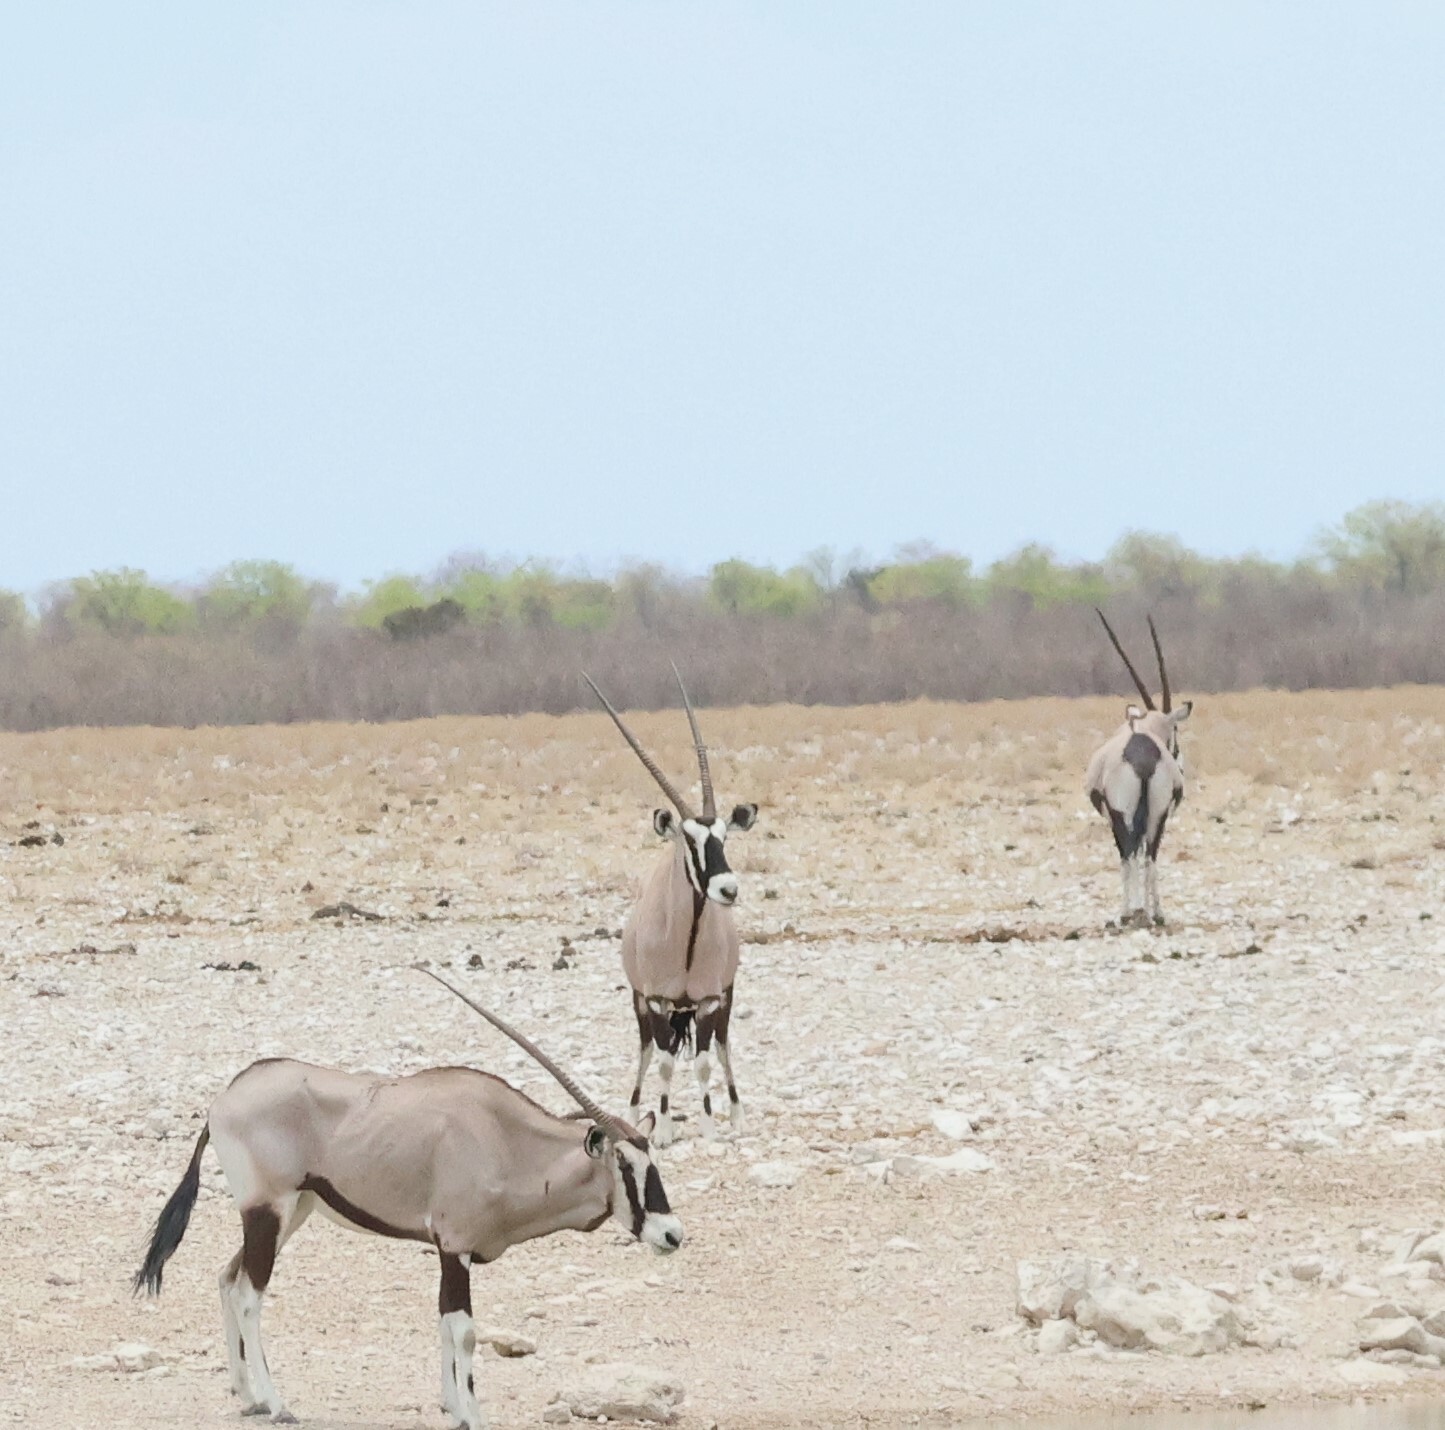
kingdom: Animalia
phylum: Chordata
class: Mammalia
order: Artiodactyla
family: Bovidae
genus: Oryx
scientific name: Oryx gazella
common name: Gemsbok
